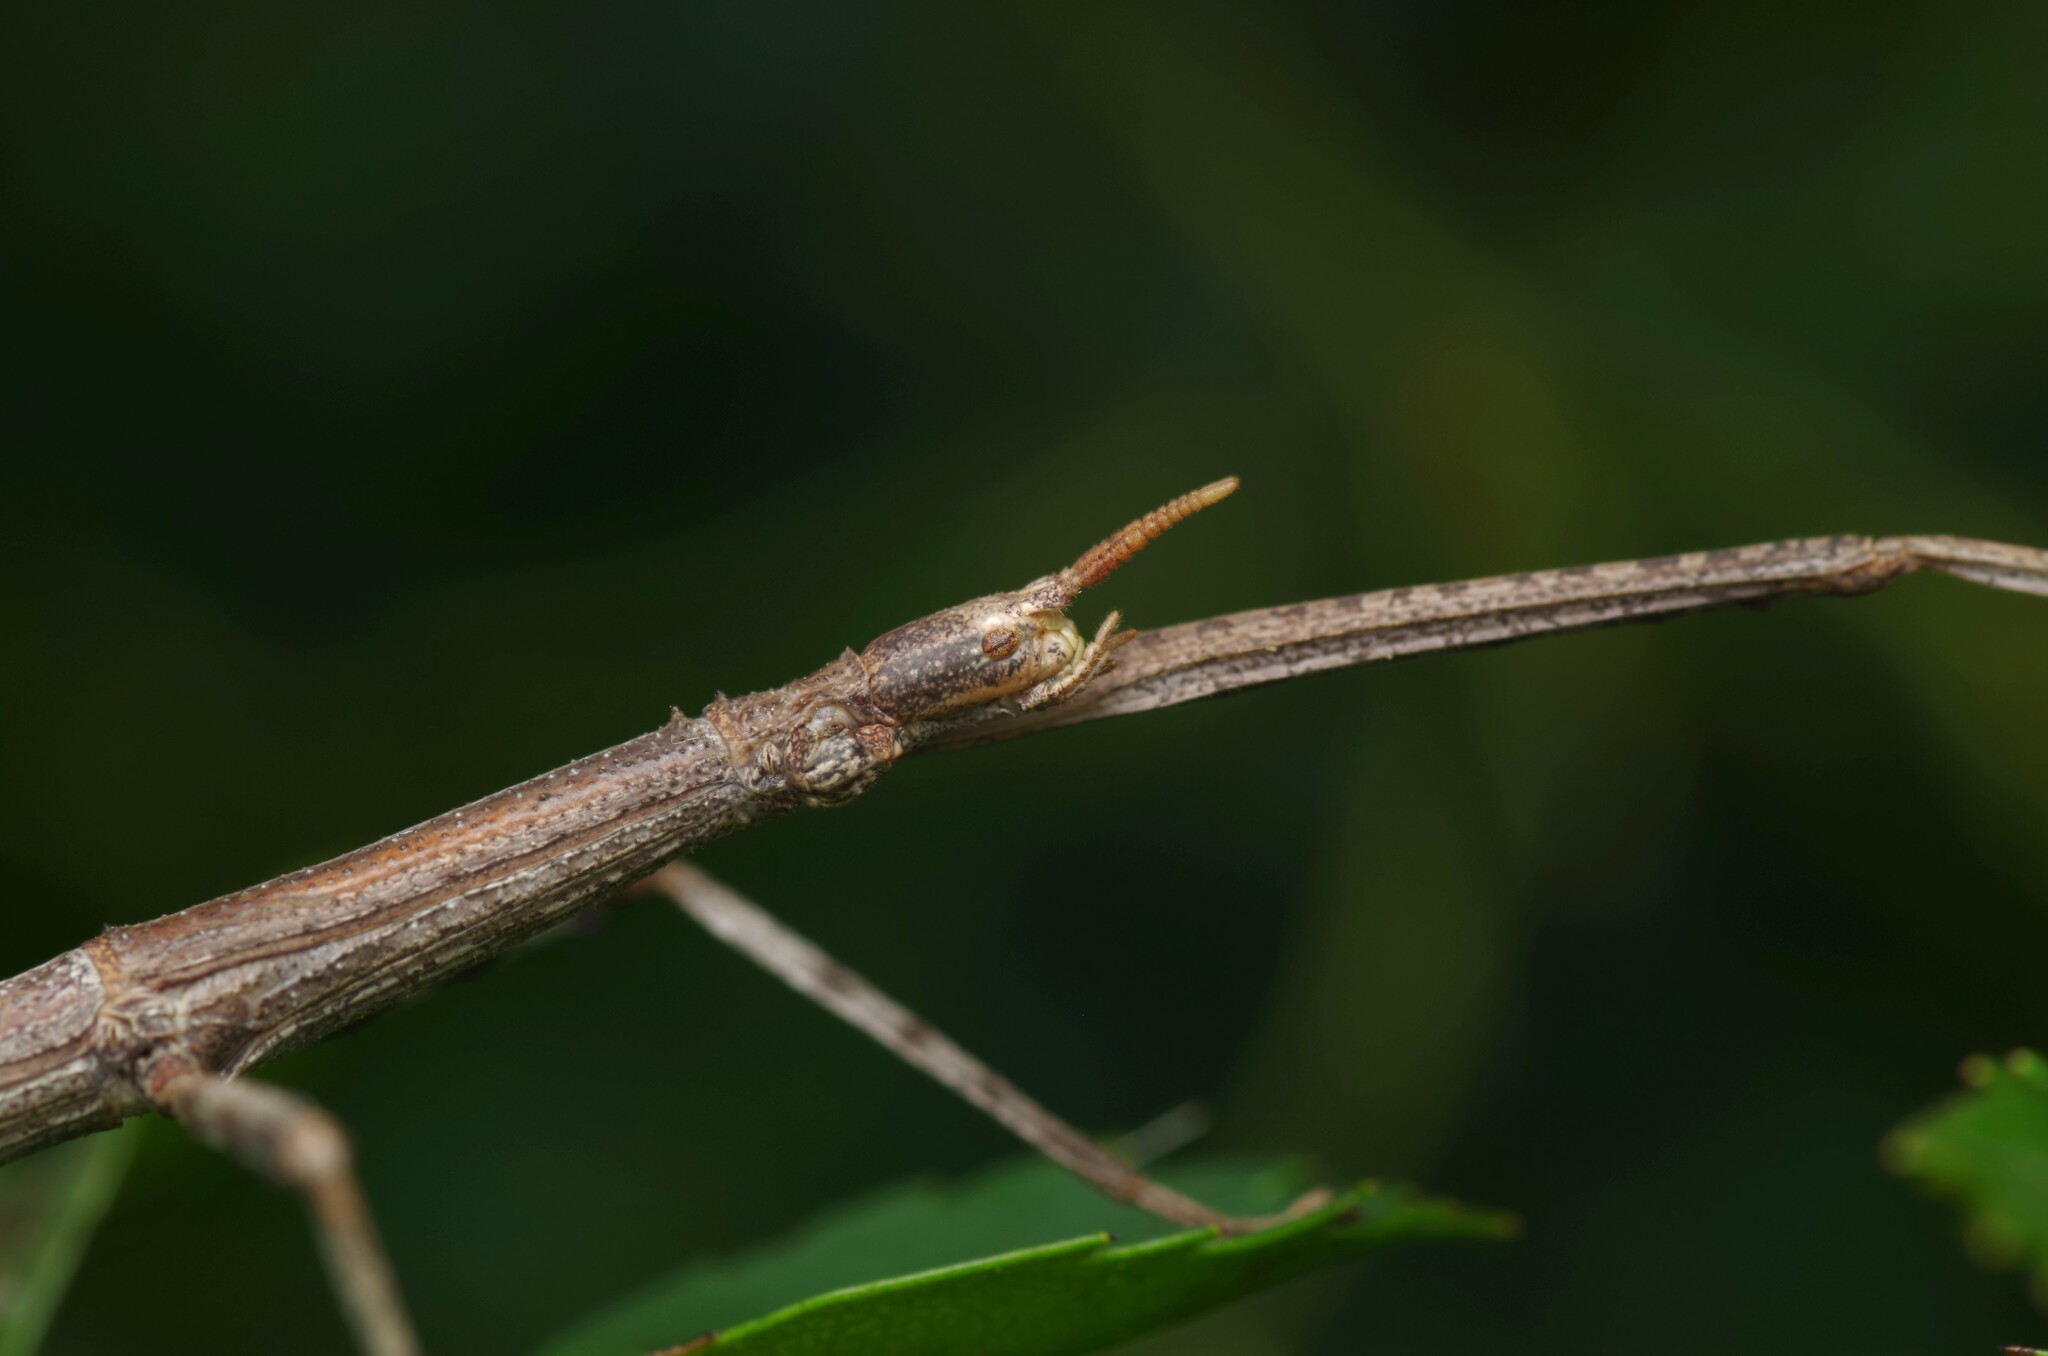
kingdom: Animalia
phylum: Arthropoda
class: Insecta
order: Phasmida
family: Bacillidae
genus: Clonopsis
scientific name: Clonopsis gallica
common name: French stick insect
